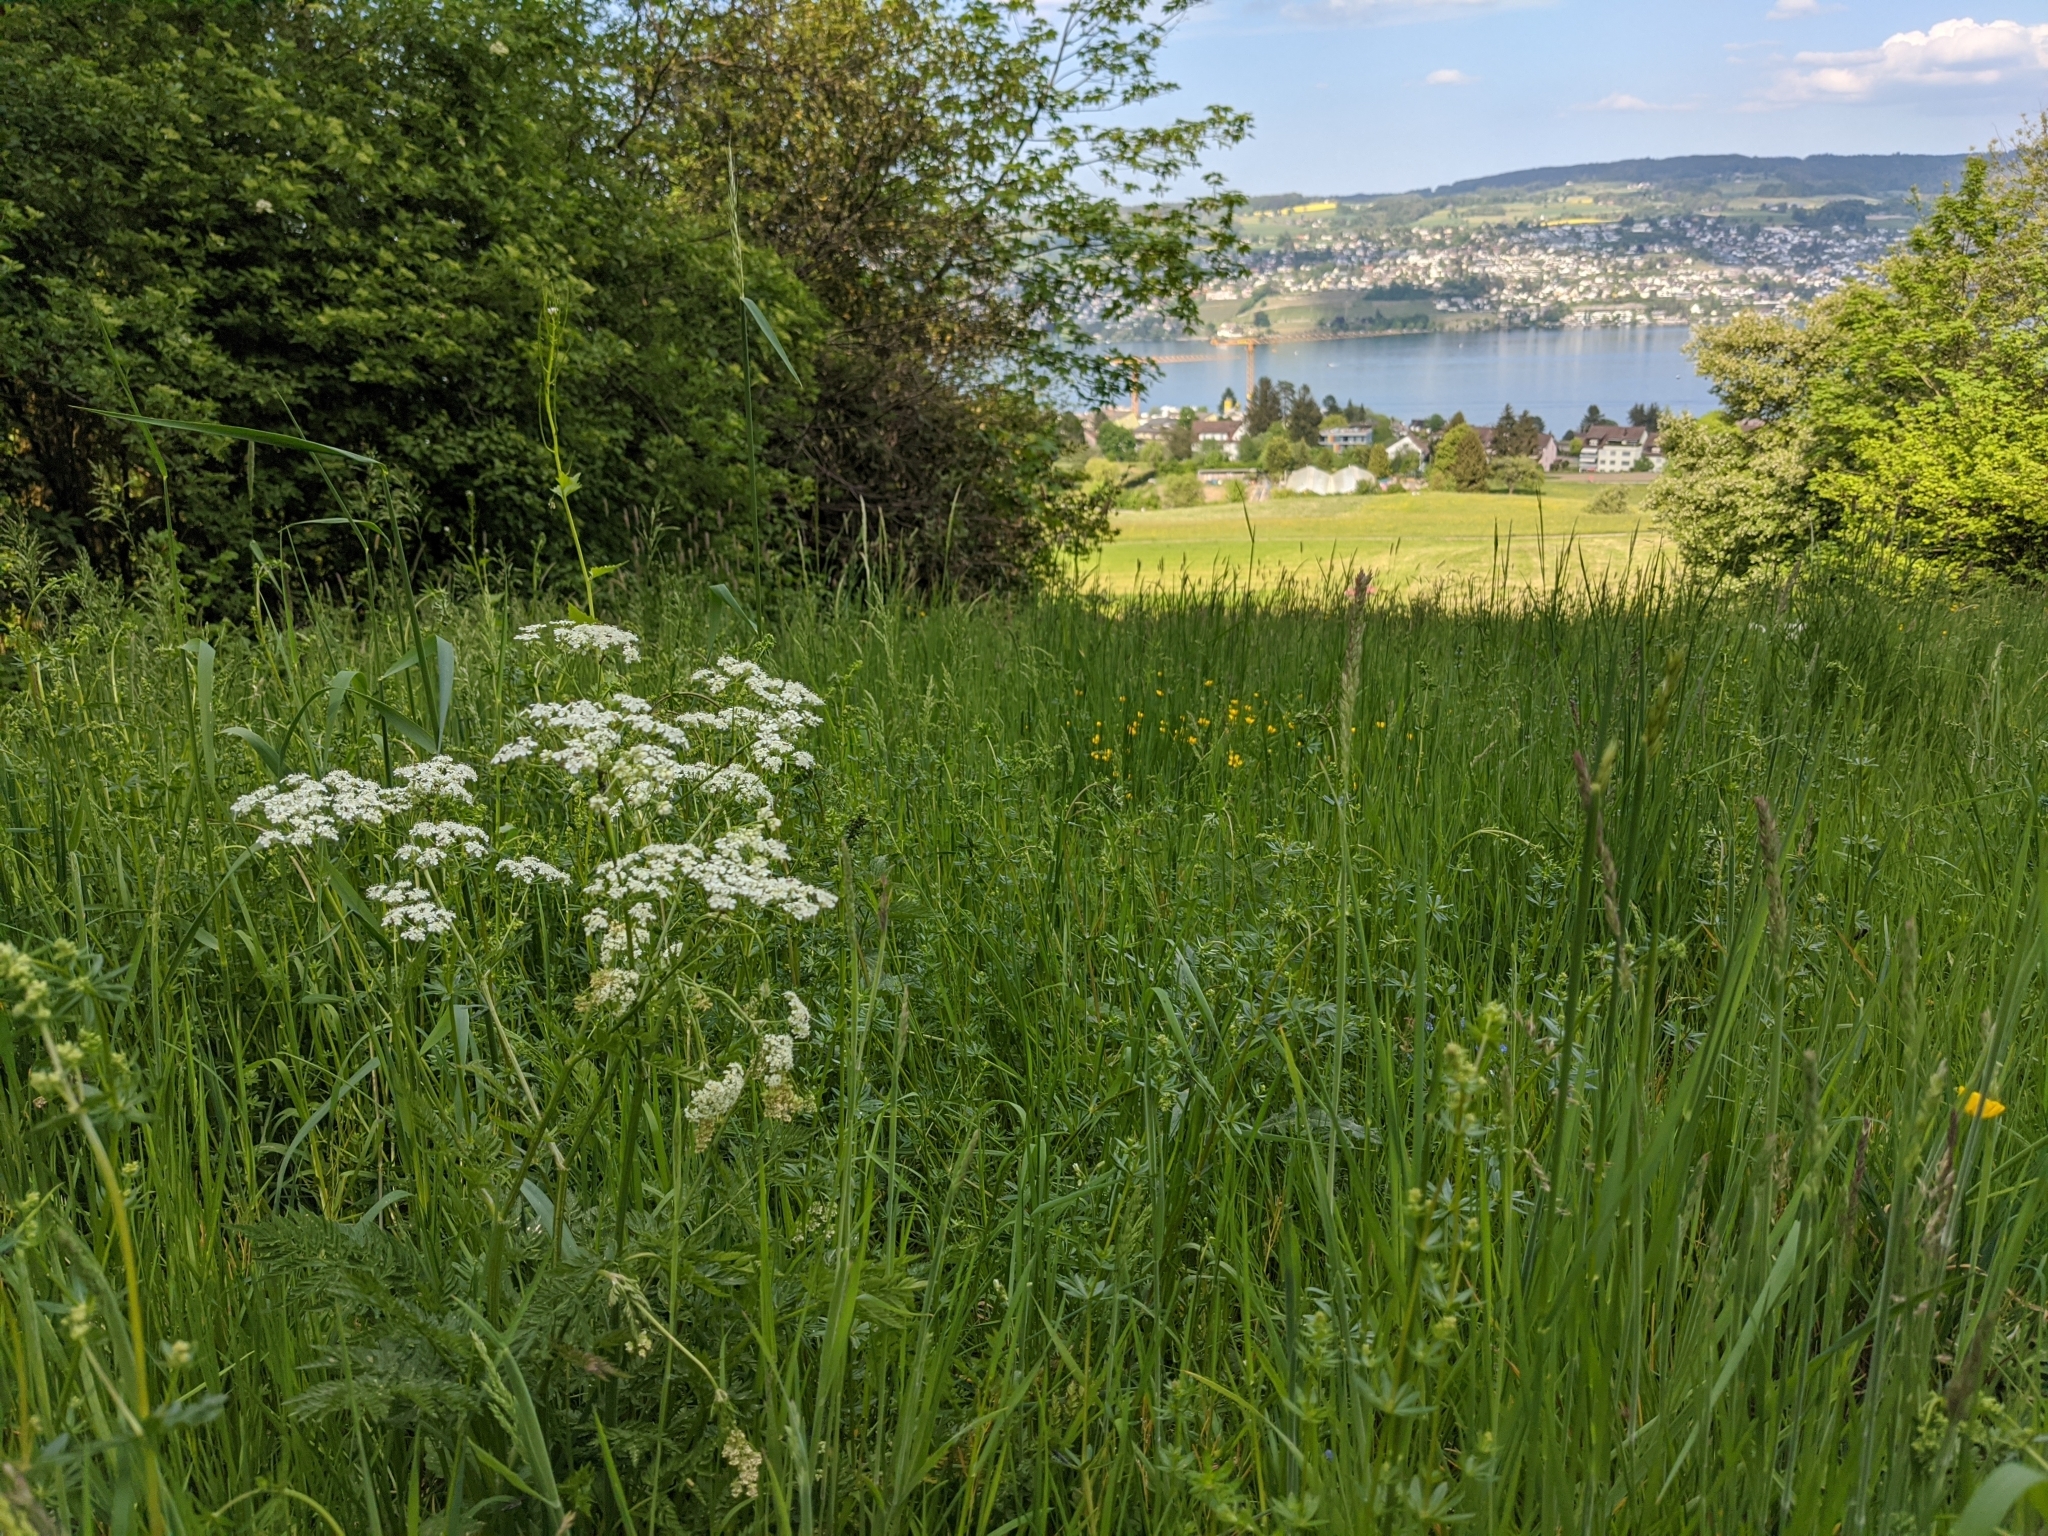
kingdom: Plantae
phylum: Tracheophyta
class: Magnoliopsida
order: Apiales
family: Apiaceae
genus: Anthriscus
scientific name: Anthriscus sylvestris
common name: Cow parsley
